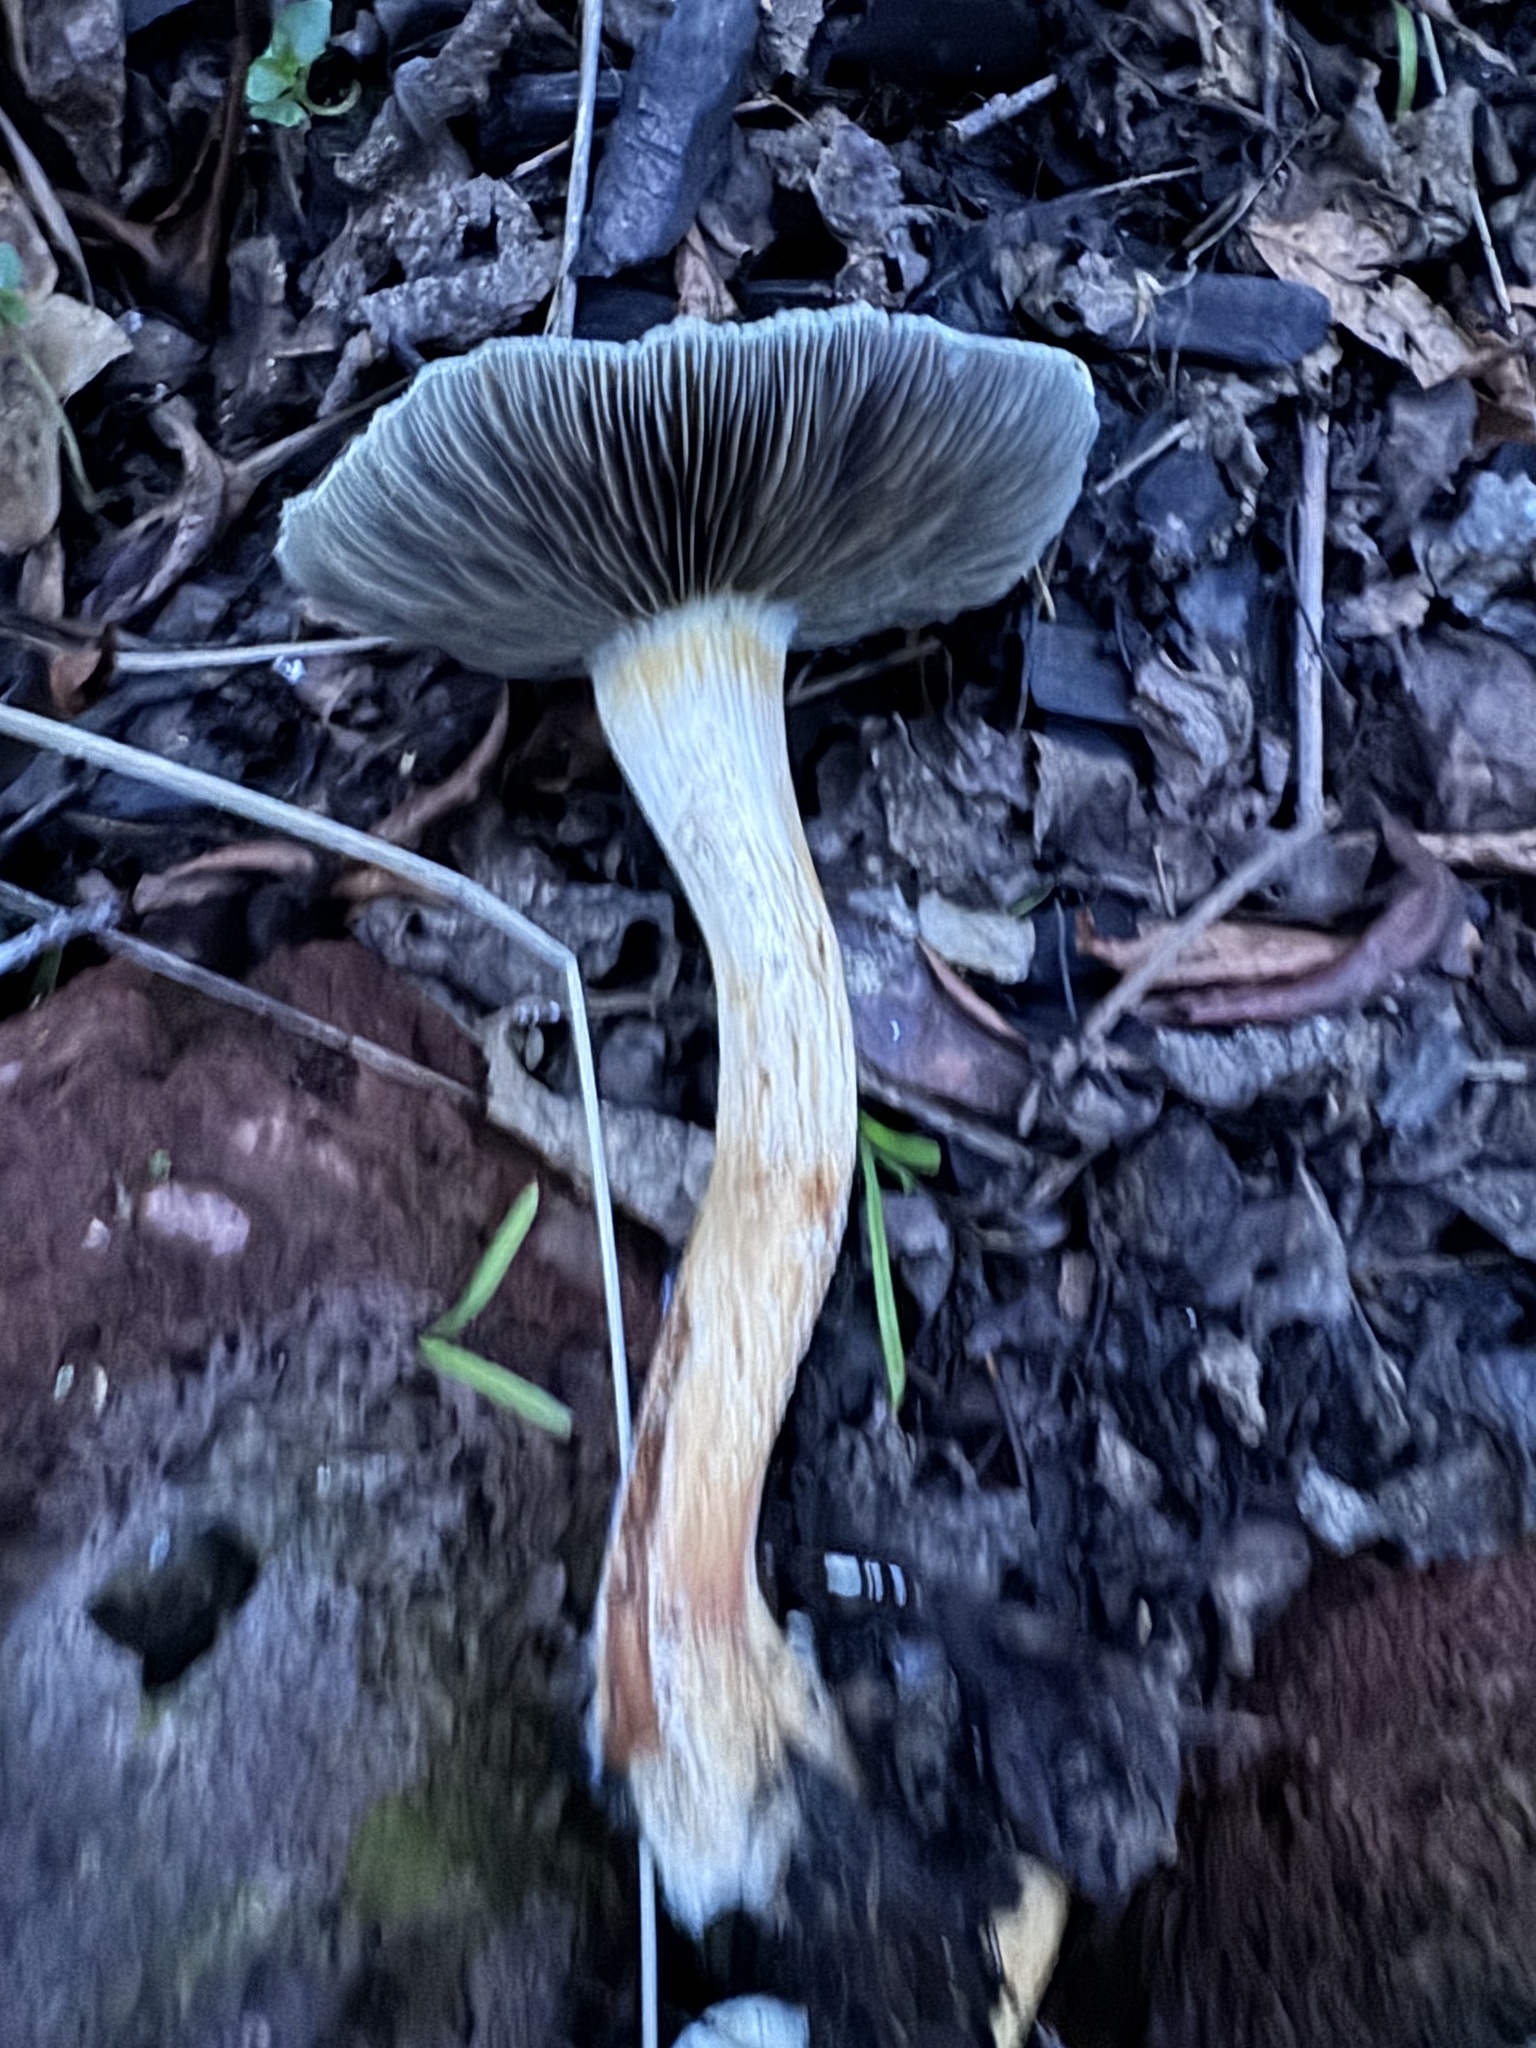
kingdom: Fungi
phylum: Basidiomycota
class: Agaricomycetes
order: Agaricales
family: Strophariaceae
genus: Leratiomyces
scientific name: Leratiomyces percevalii
